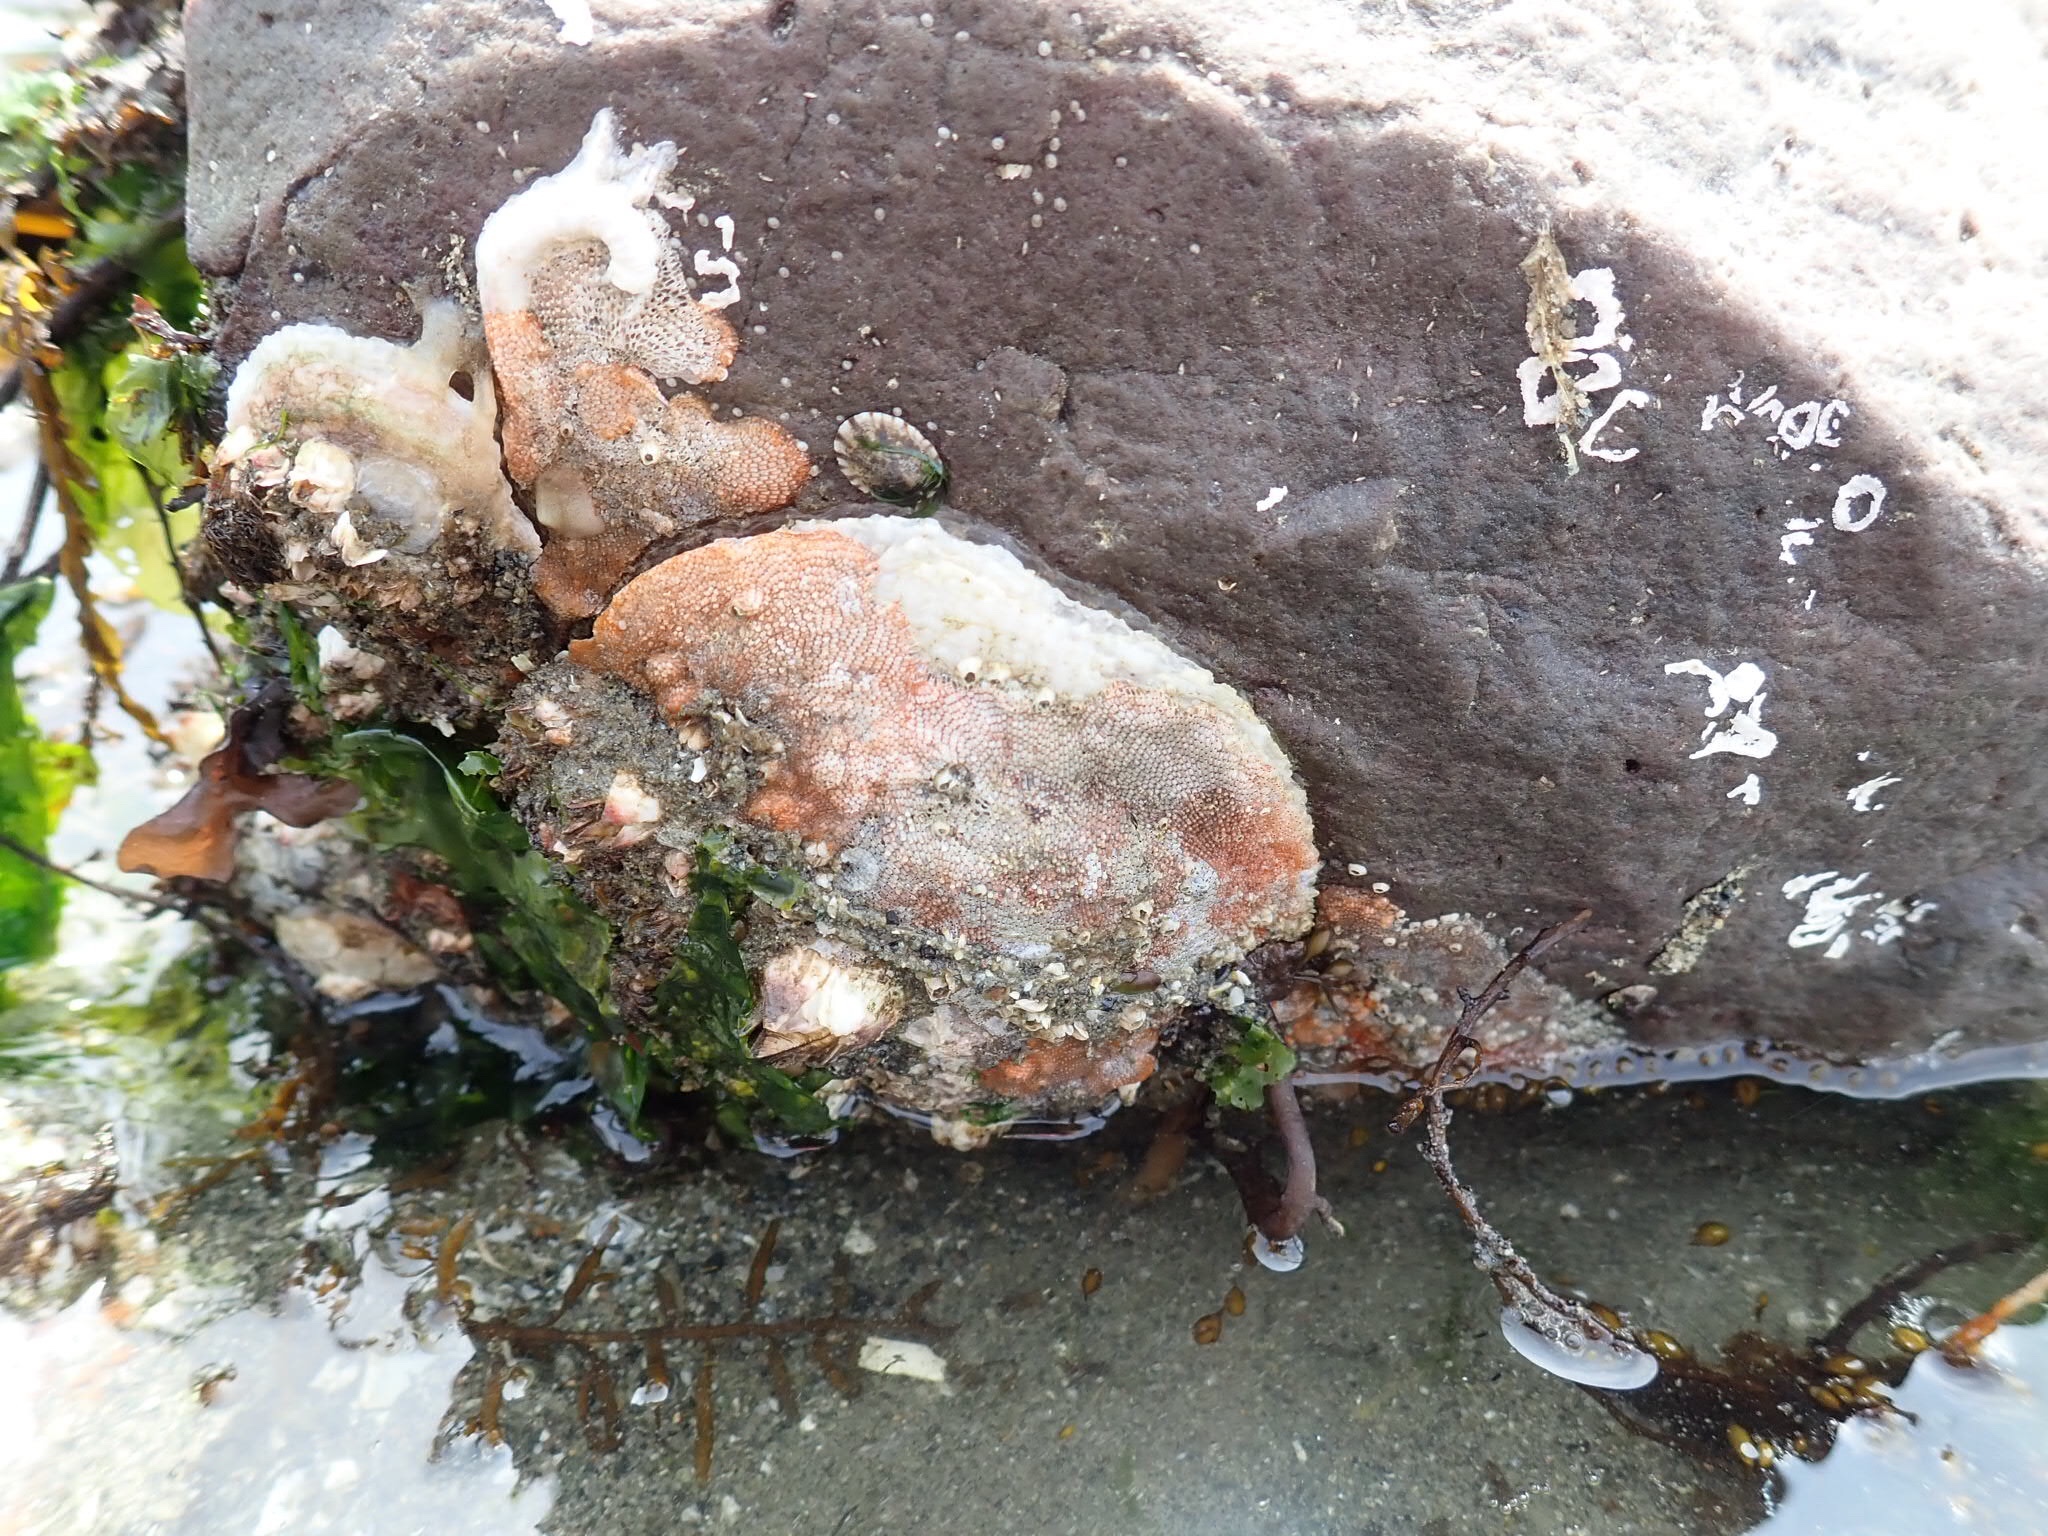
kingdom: Animalia
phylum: Mollusca
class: Bivalvia
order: Pectinida
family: Anomiidae
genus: Pododesmus
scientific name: Pododesmus macrochisma
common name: Alaska jingle
